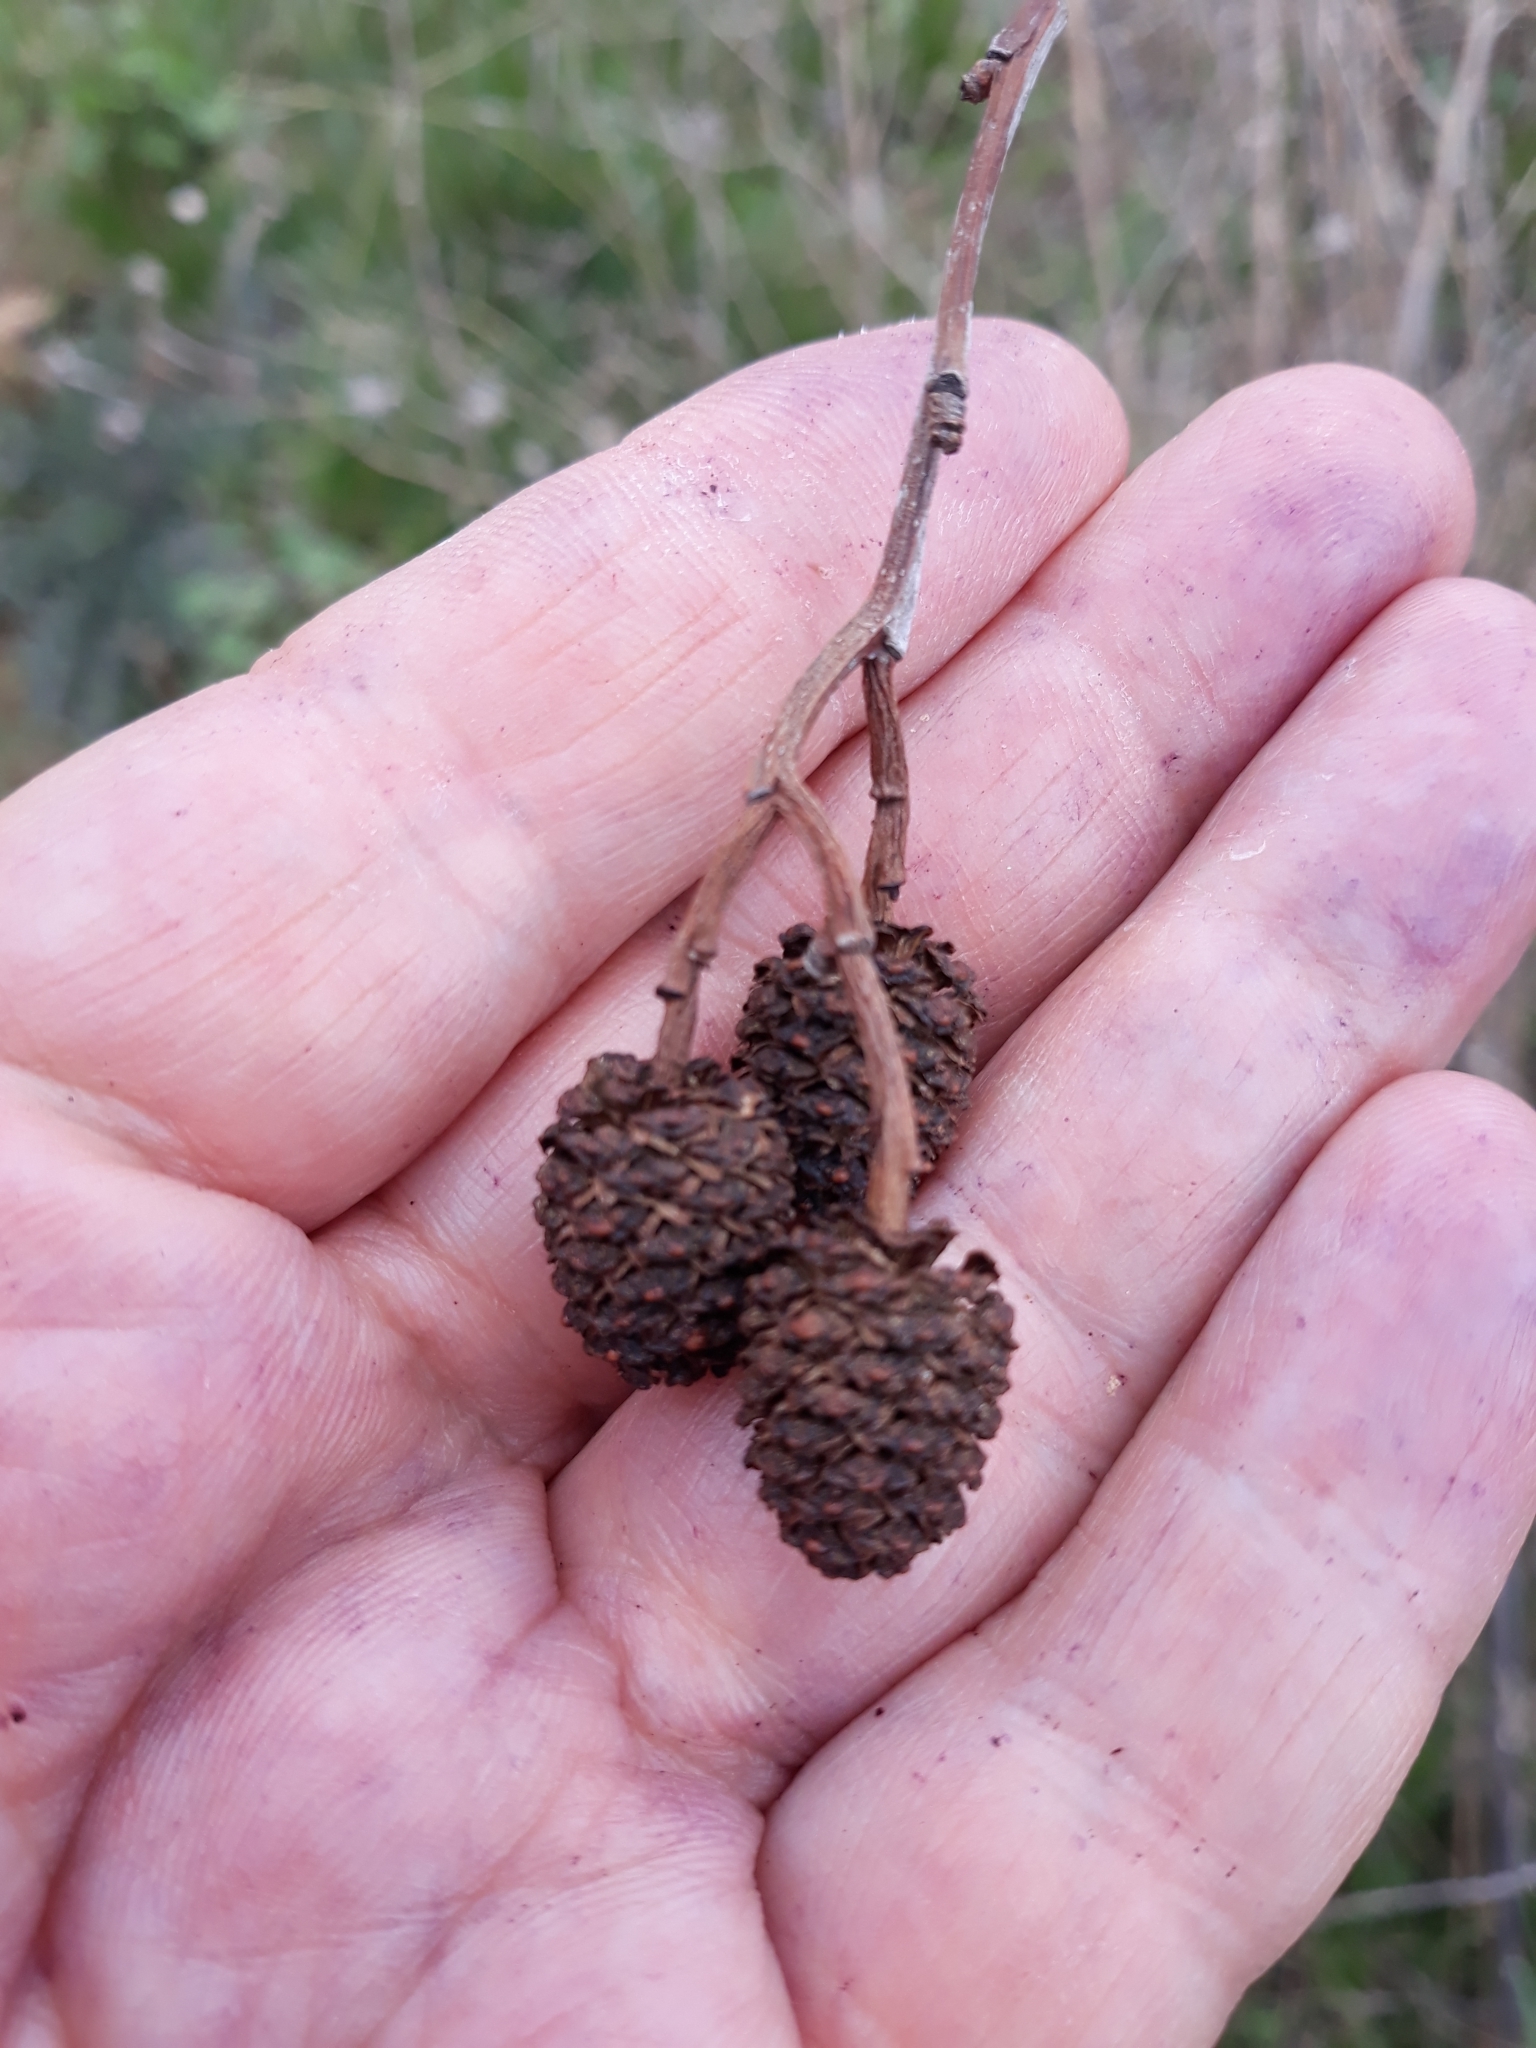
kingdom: Plantae
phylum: Tracheophyta
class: Magnoliopsida
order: Fagales
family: Betulaceae
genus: Alnus
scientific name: Alnus glutinosa
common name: Black alder
